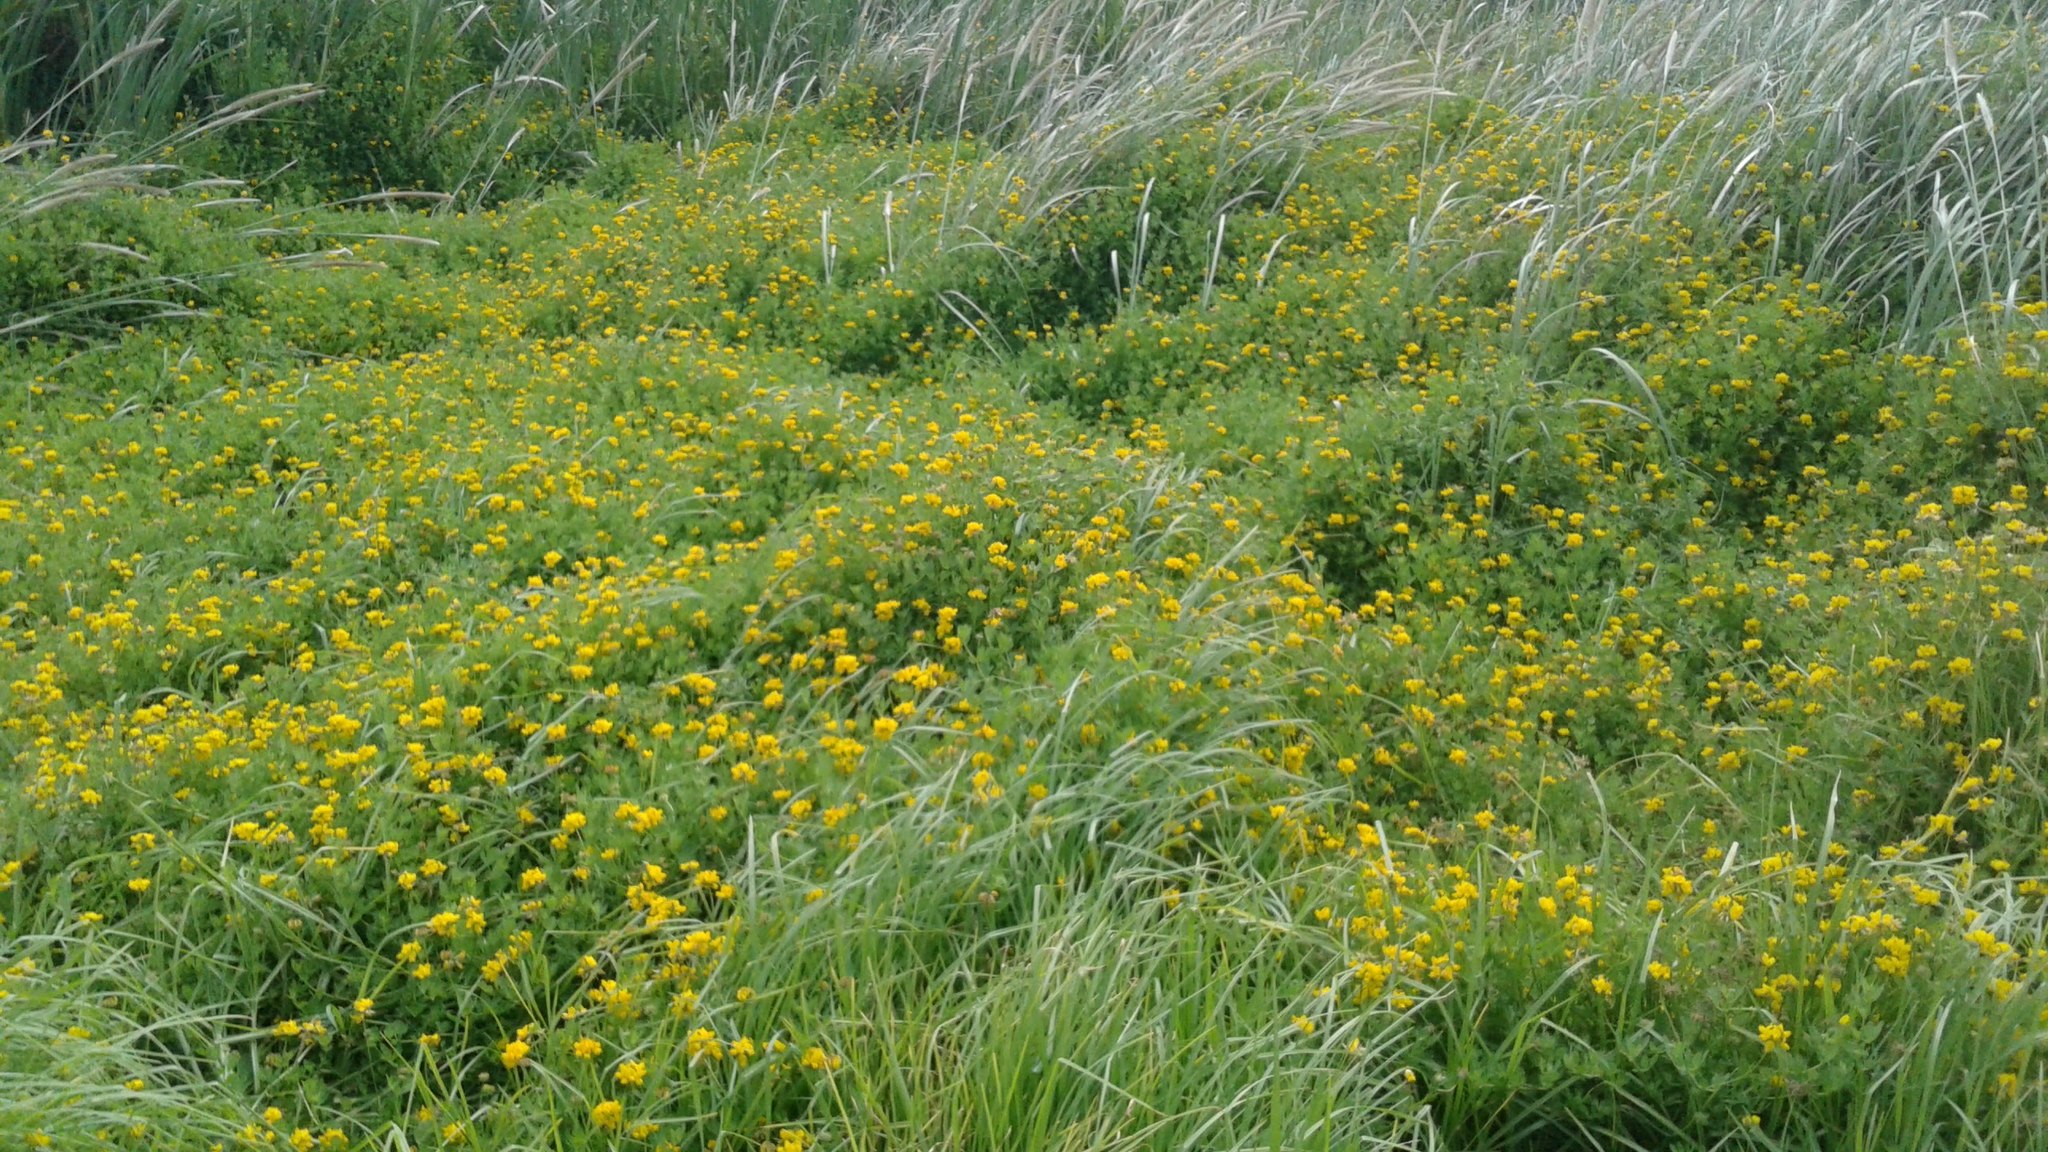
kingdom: Plantae
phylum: Tracheophyta
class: Magnoliopsida
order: Fabales
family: Fabaceae
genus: Lotus
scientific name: Lotus corniculatus
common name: Common bird's-foot-trefoil
